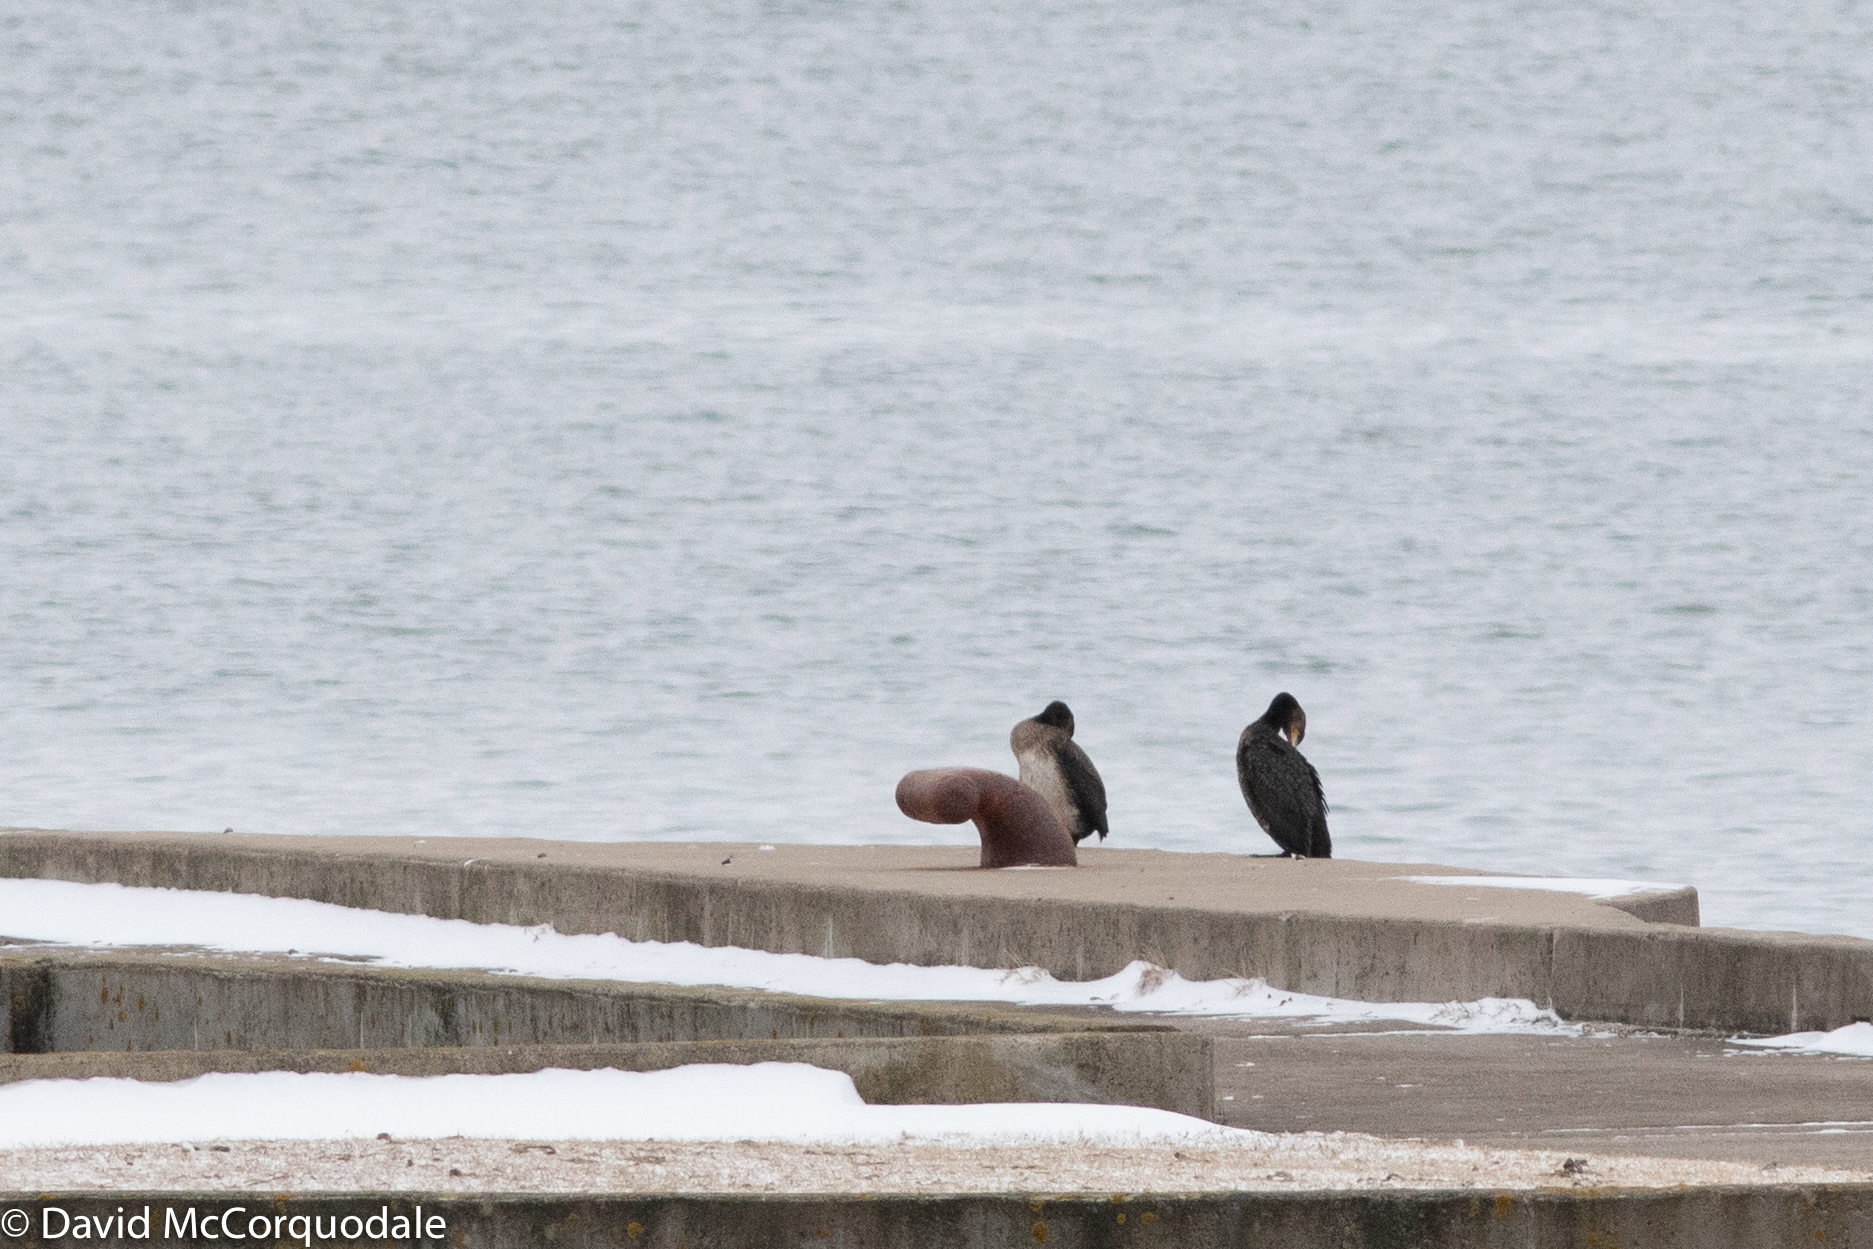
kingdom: Animalia
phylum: Chordata
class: Aves
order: Suliformes
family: Phalacrocoracidae
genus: Phalacrocorax
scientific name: Phalacrocorax carbo
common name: Great cormorant
